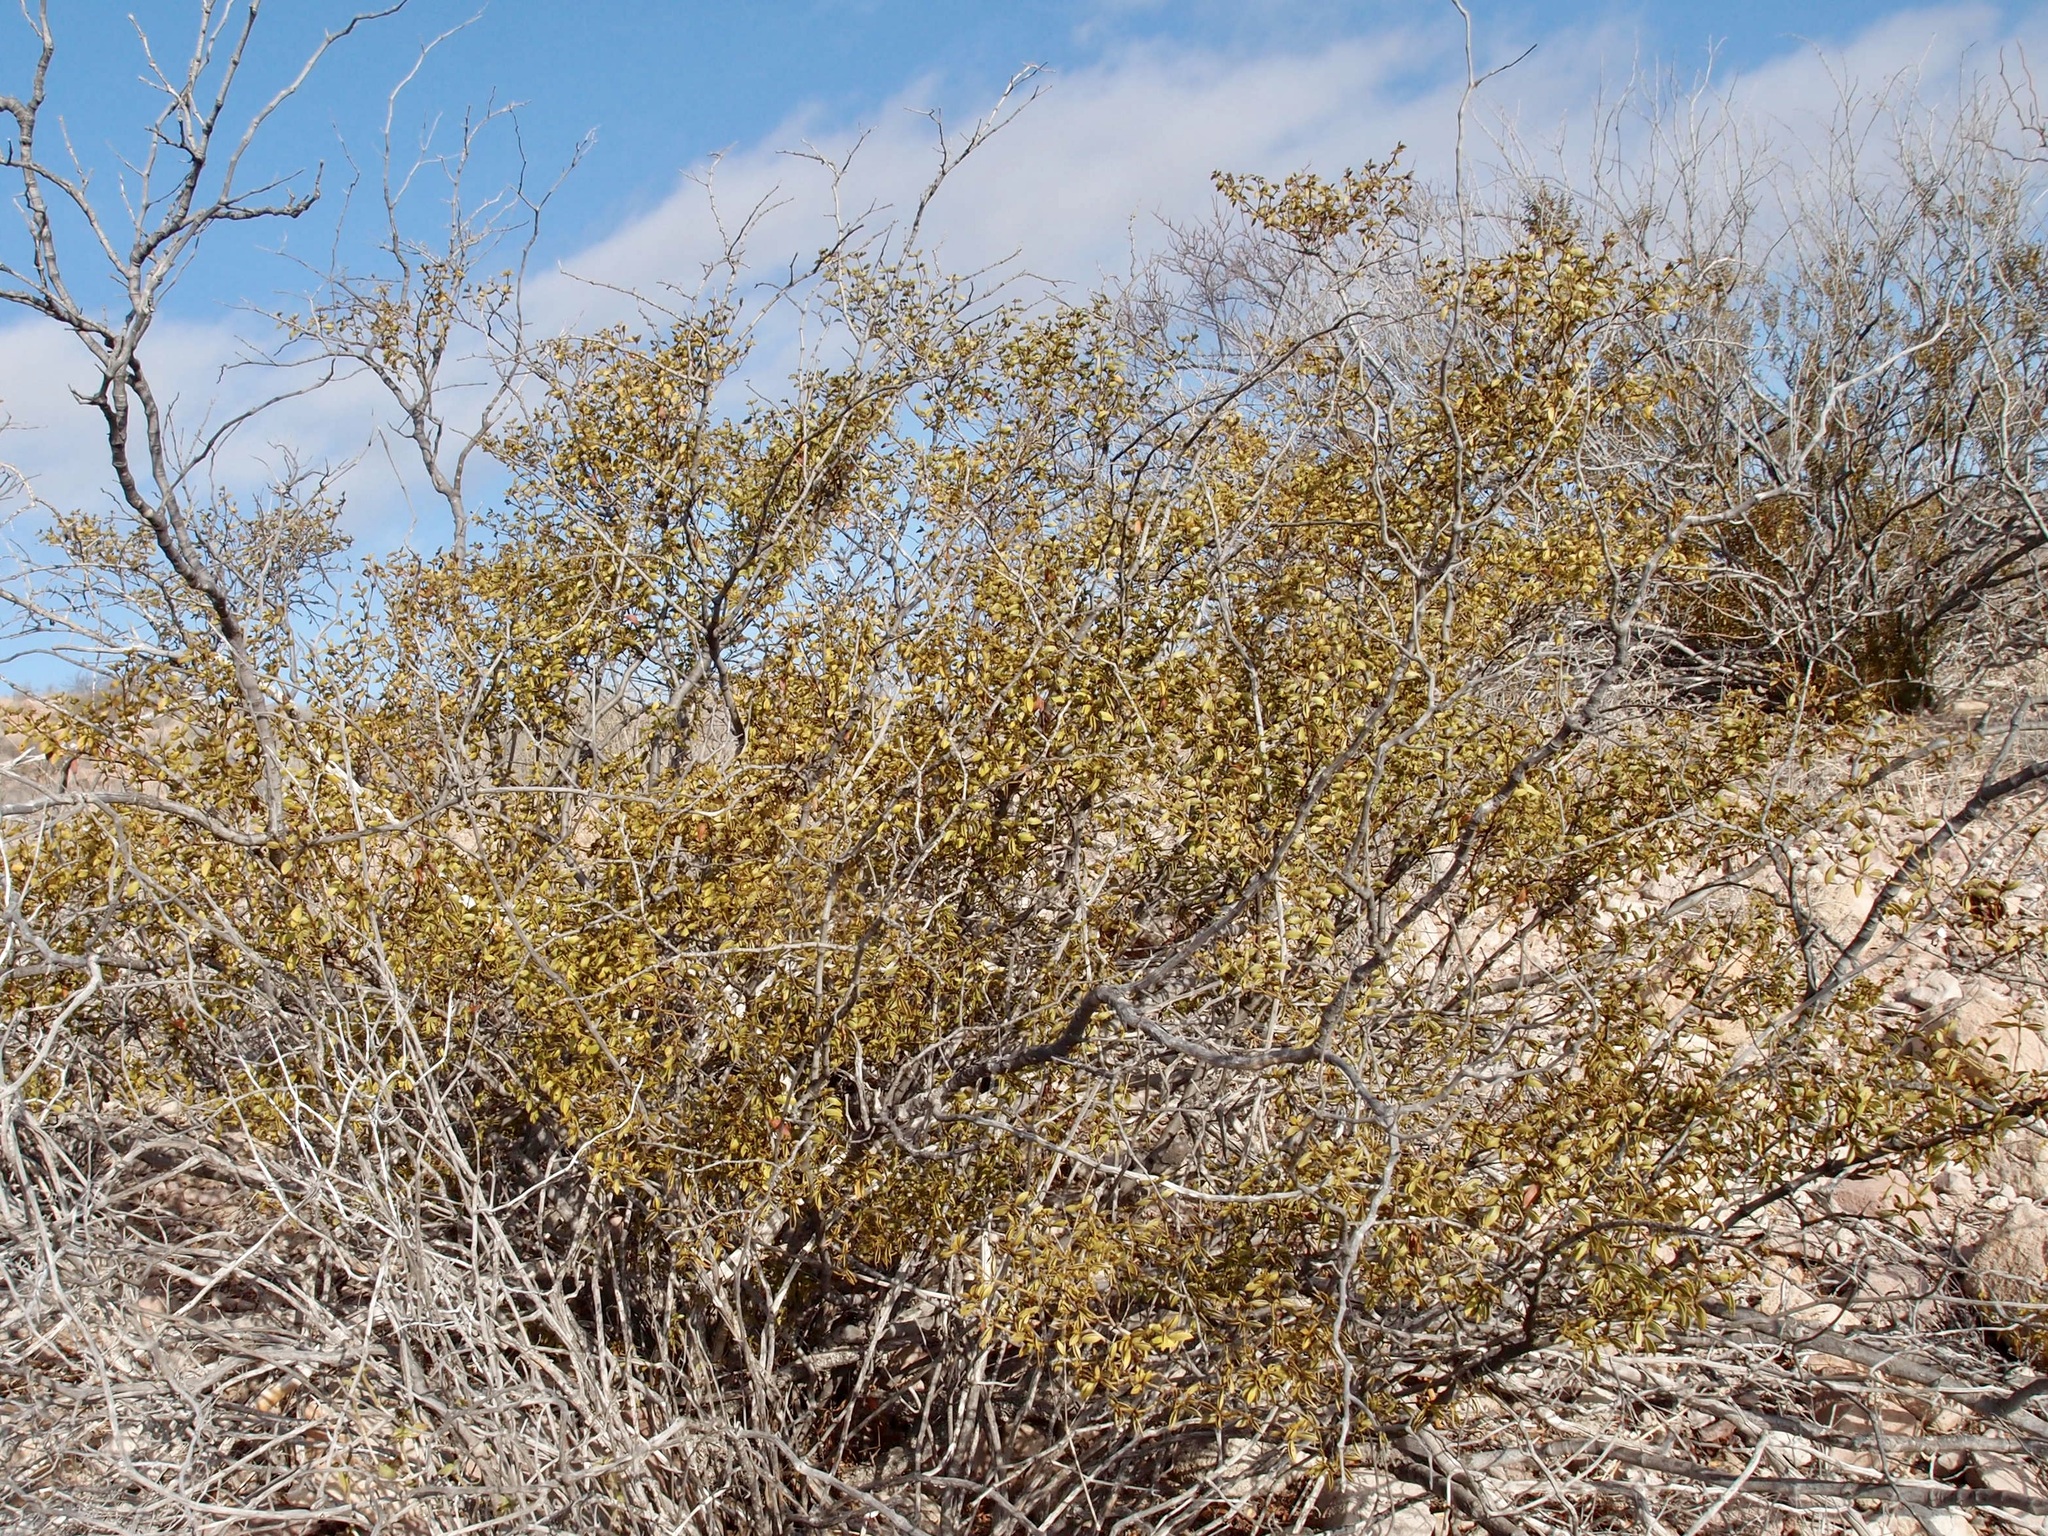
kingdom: Plantae
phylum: Tracheophyta
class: Magnoliopsida
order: Zygophyllales
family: Zygophyllaceae
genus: Larrea
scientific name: Larrea tridentata
